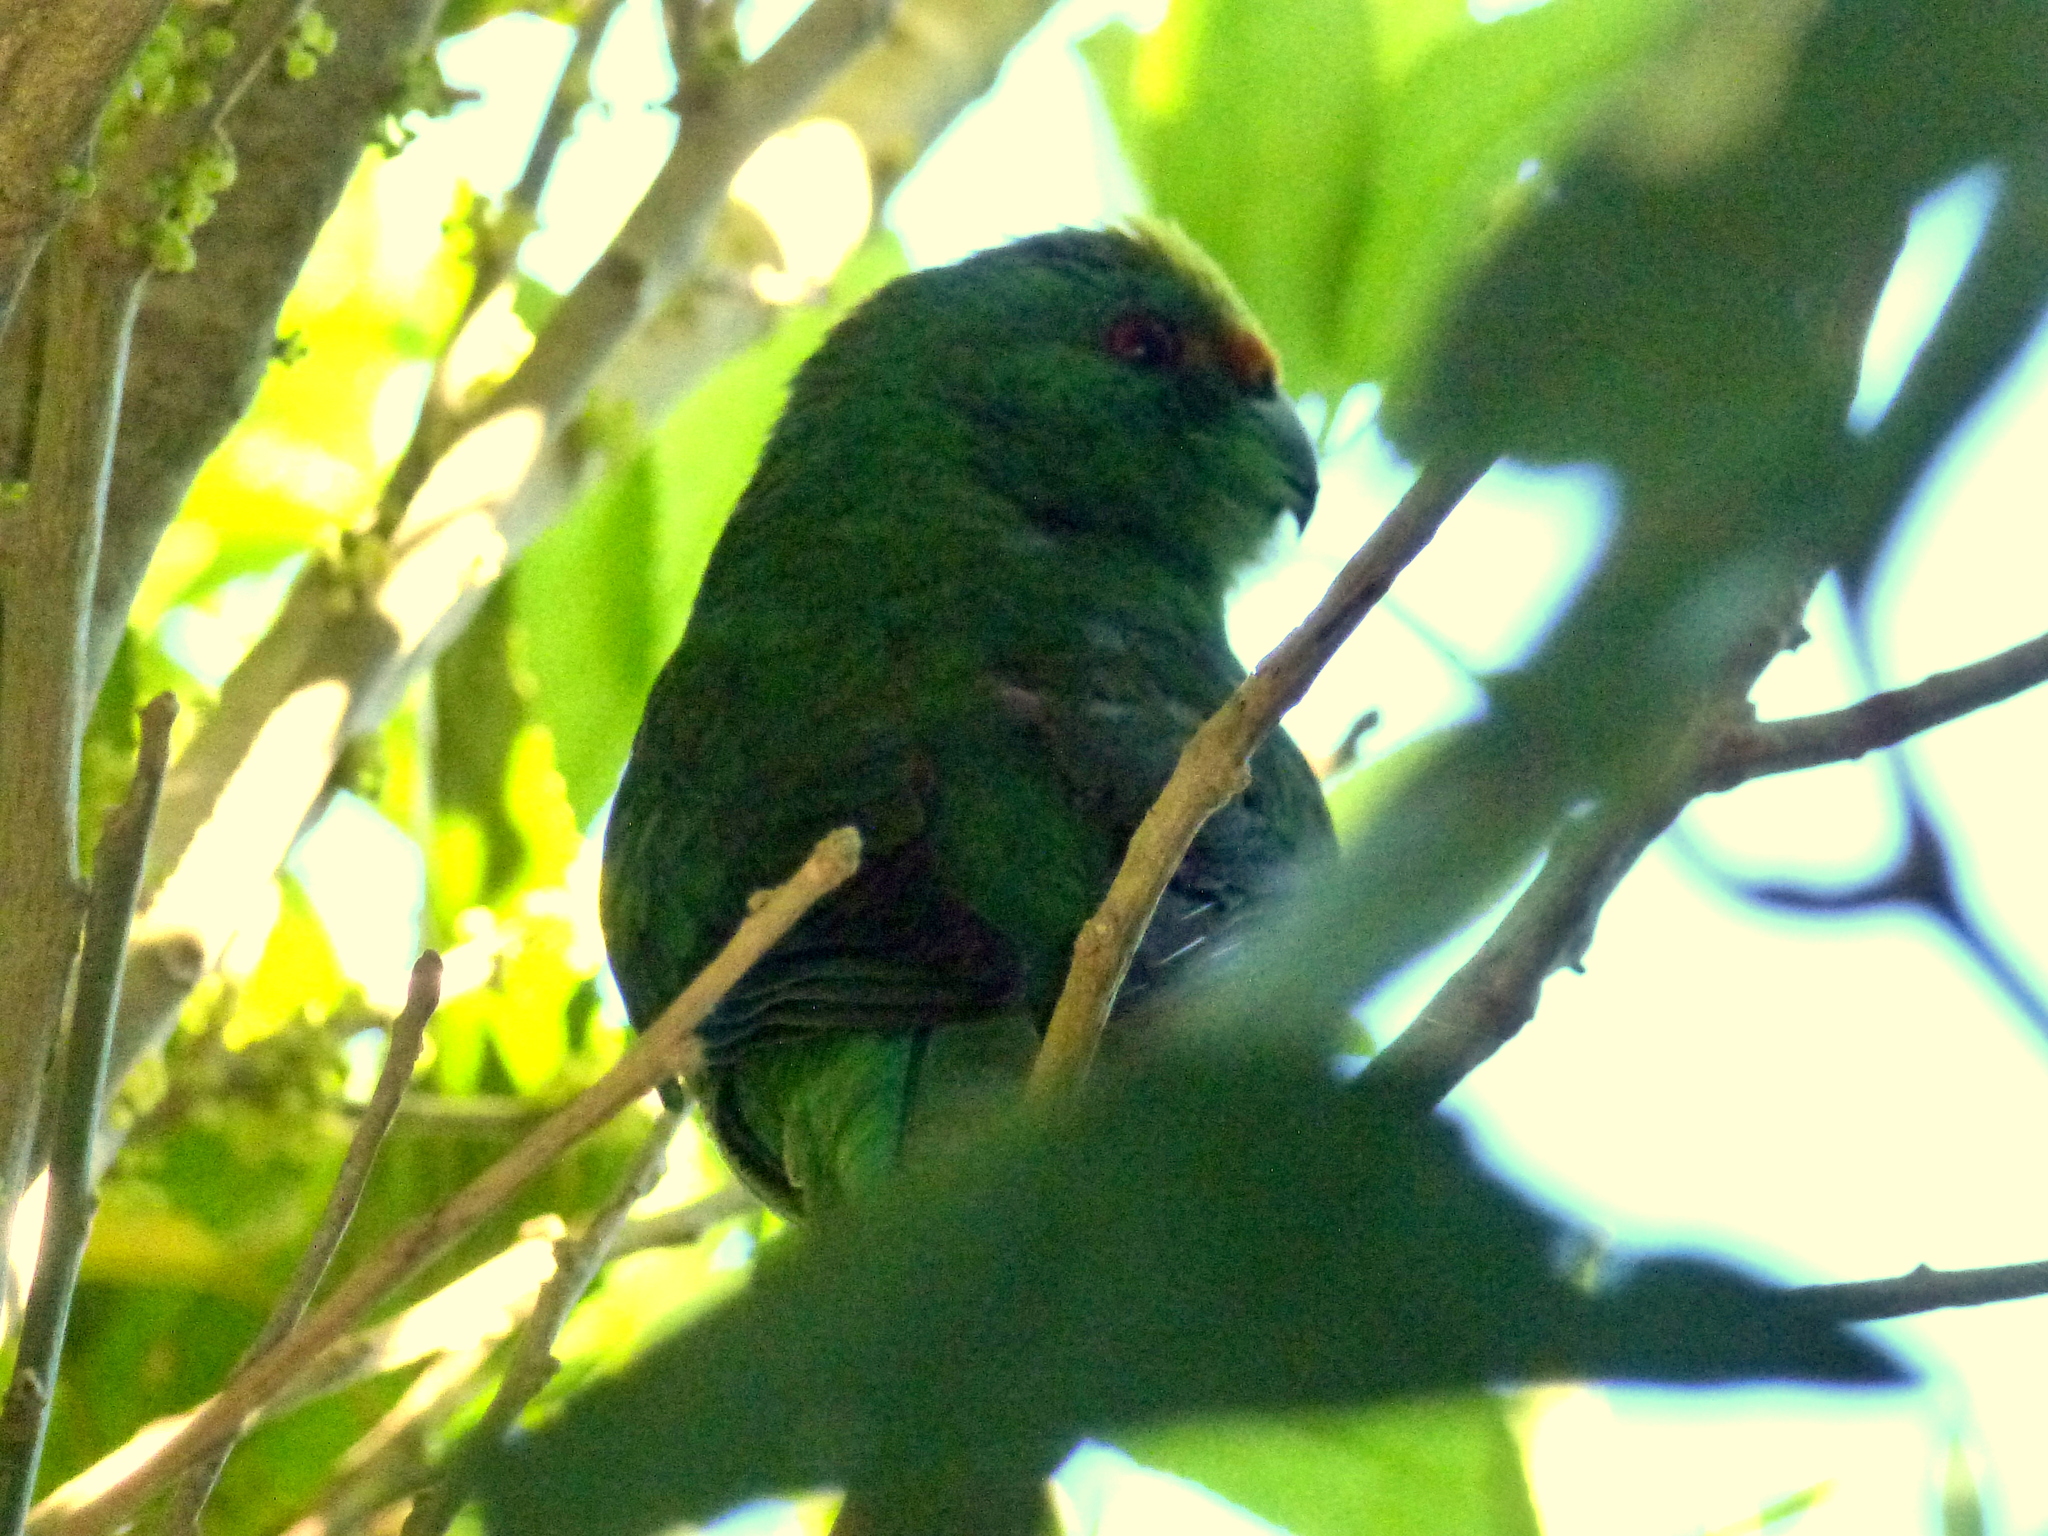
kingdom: Animalia
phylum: Chordata
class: Aves
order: Psittaciformes
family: Psittacidae
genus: Cyanoramphus
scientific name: Cyanoramphus malherbi
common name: Malherbe's parakeet
